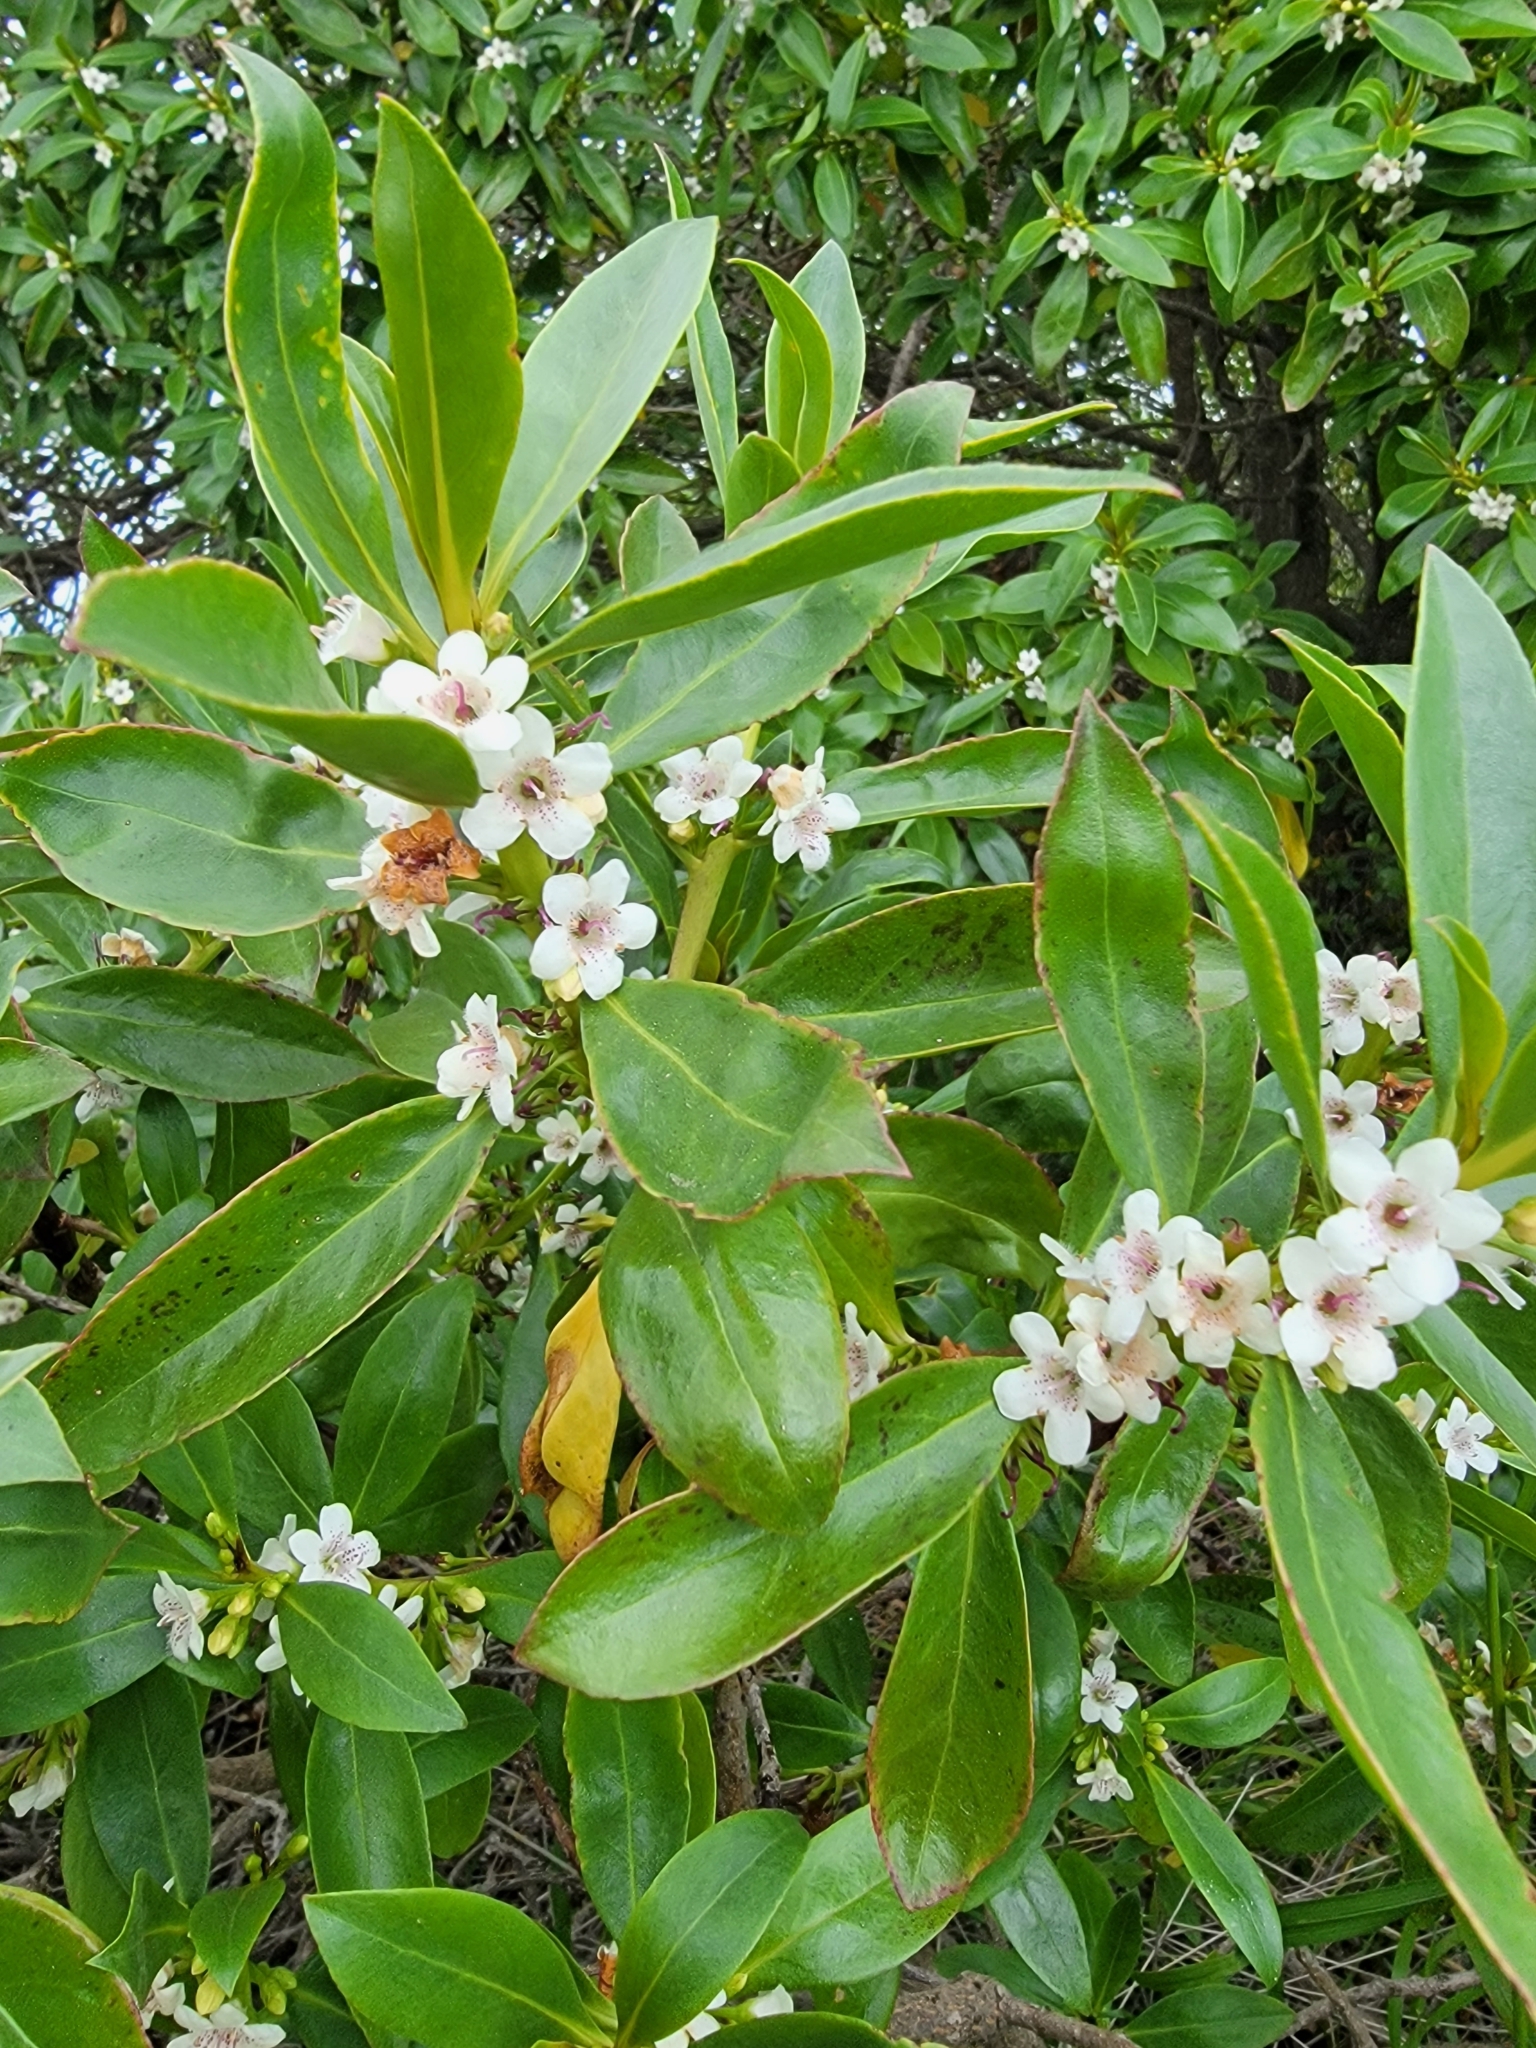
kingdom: Plantae
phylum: Tracheophyta
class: Magnoliopsida
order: Lamiales
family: Scrophulariaceae
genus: Myoporum
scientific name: Myoporum laetum
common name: Ngaio tree
